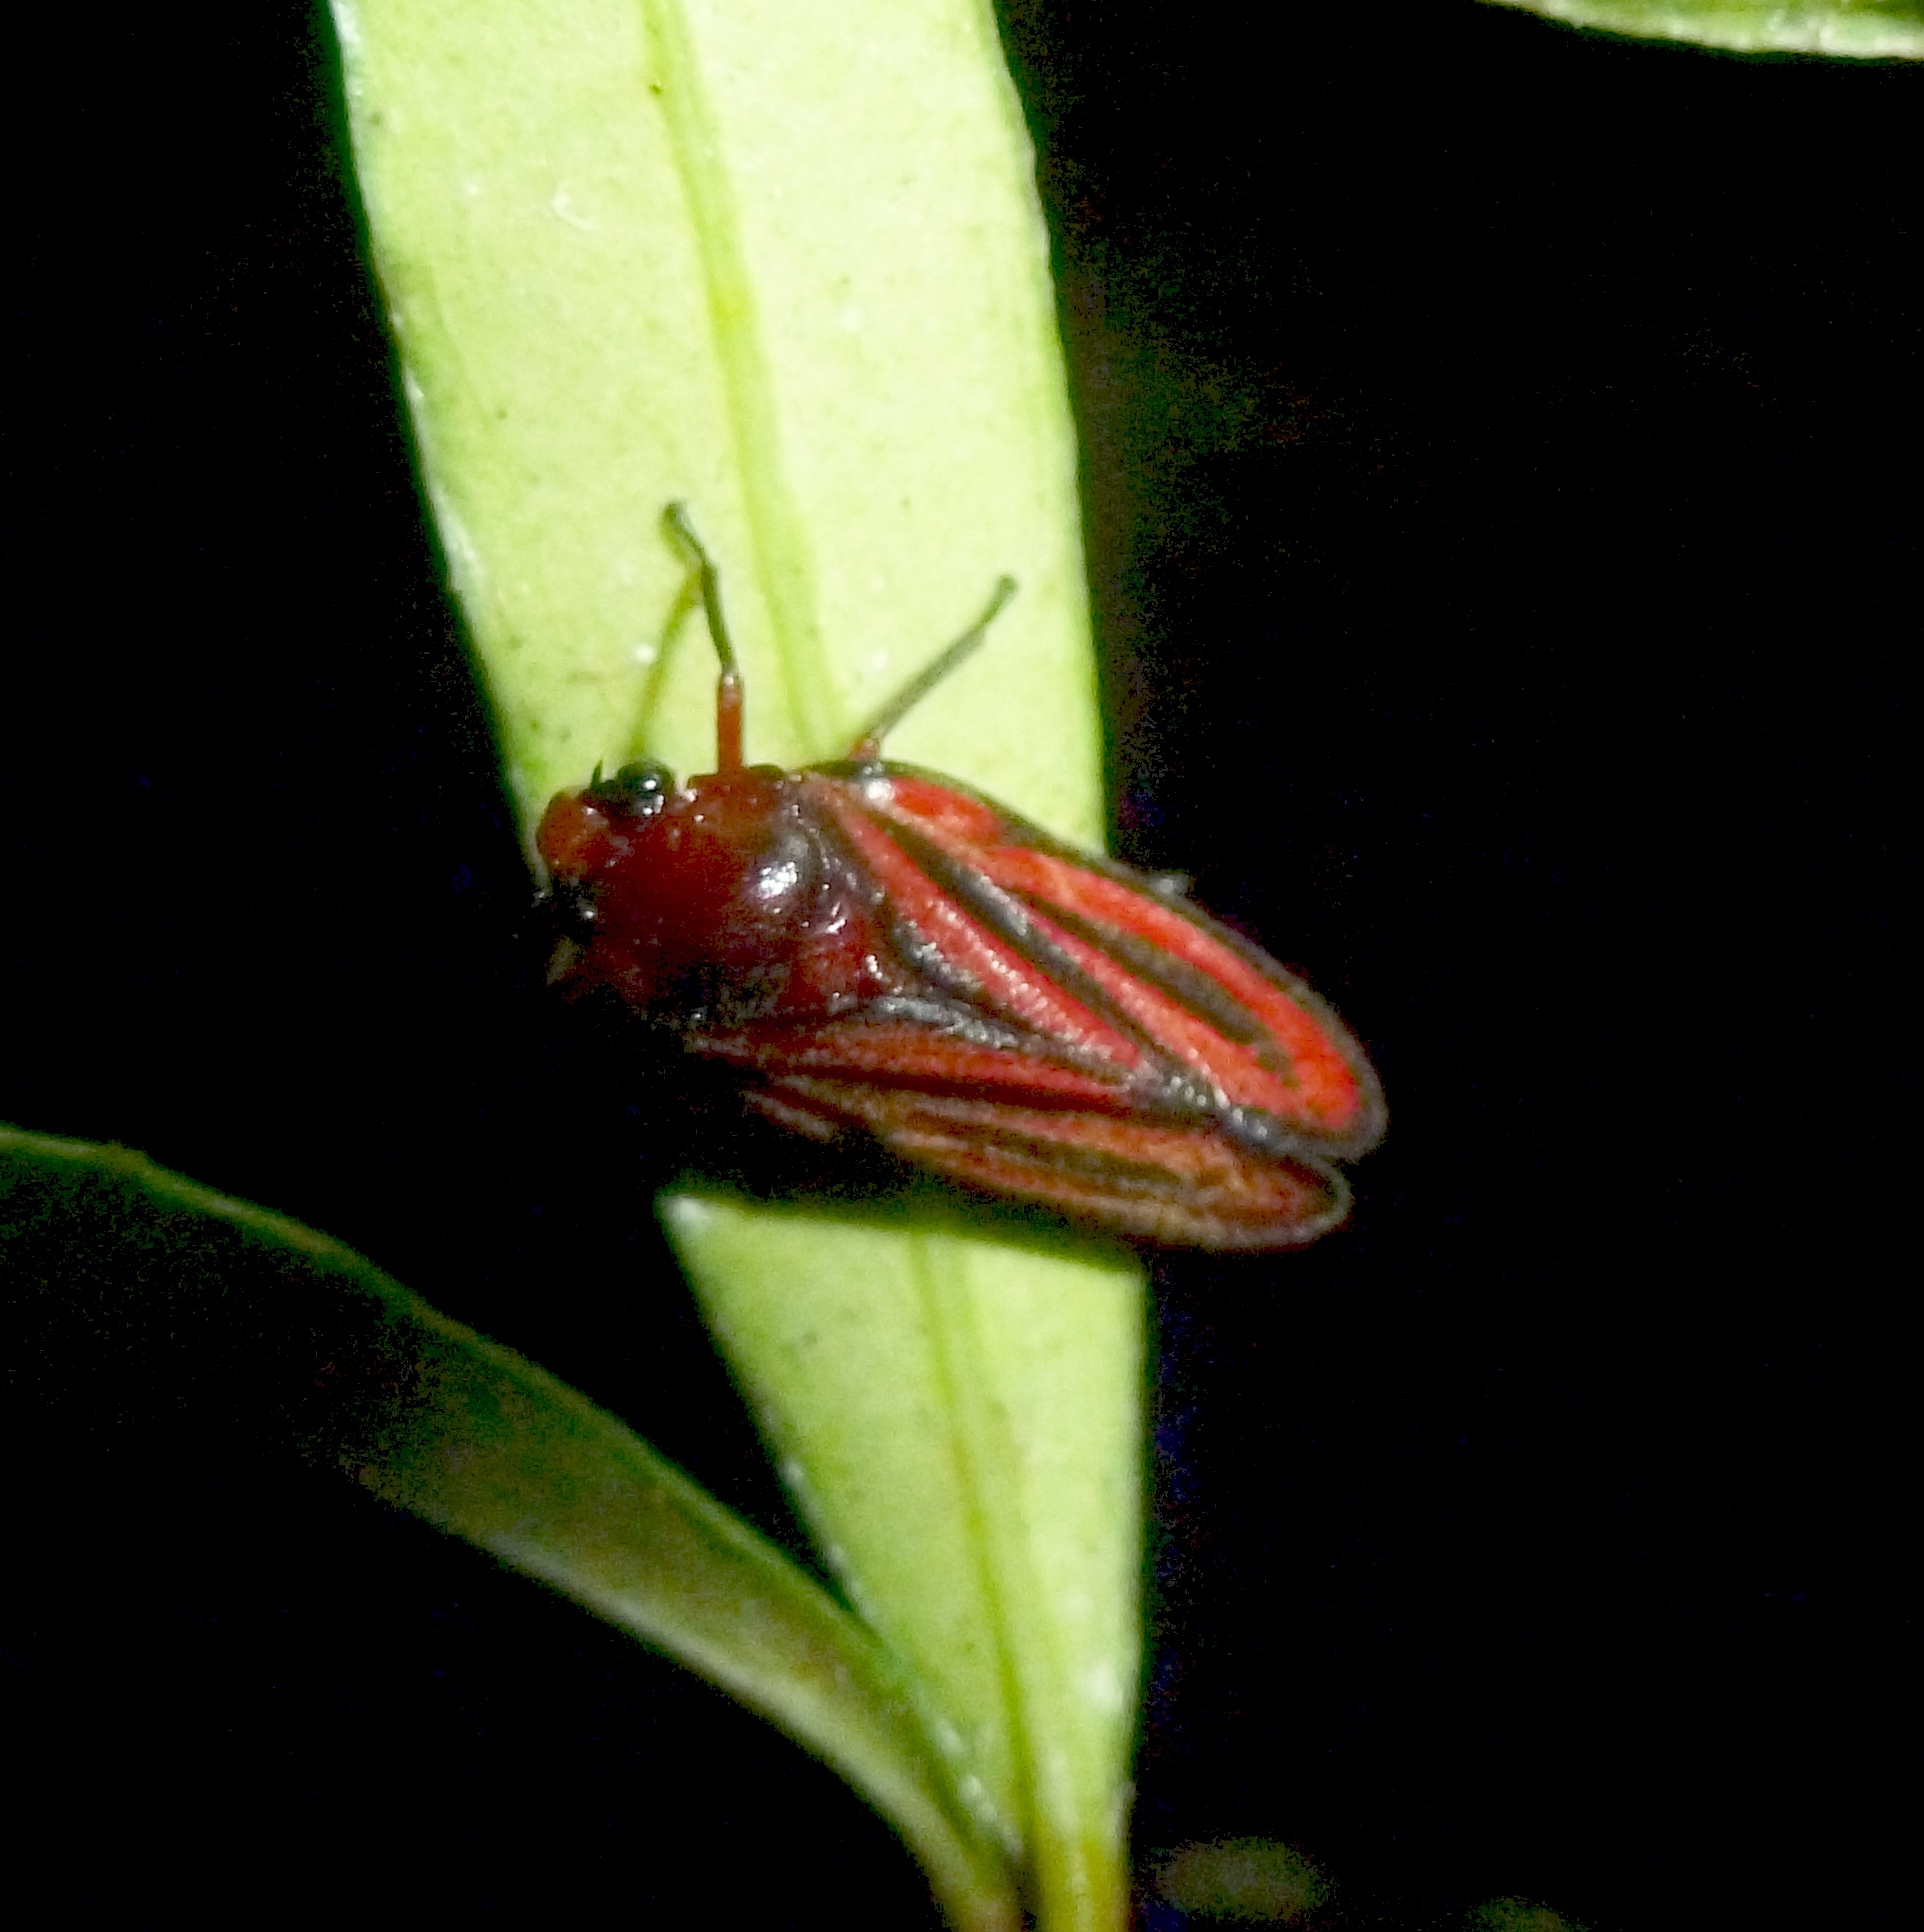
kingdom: Animalia
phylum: Arthropoda
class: Insecta
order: Hemiptera
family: Cercopidae
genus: Amberana
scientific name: Amberana uncinata
